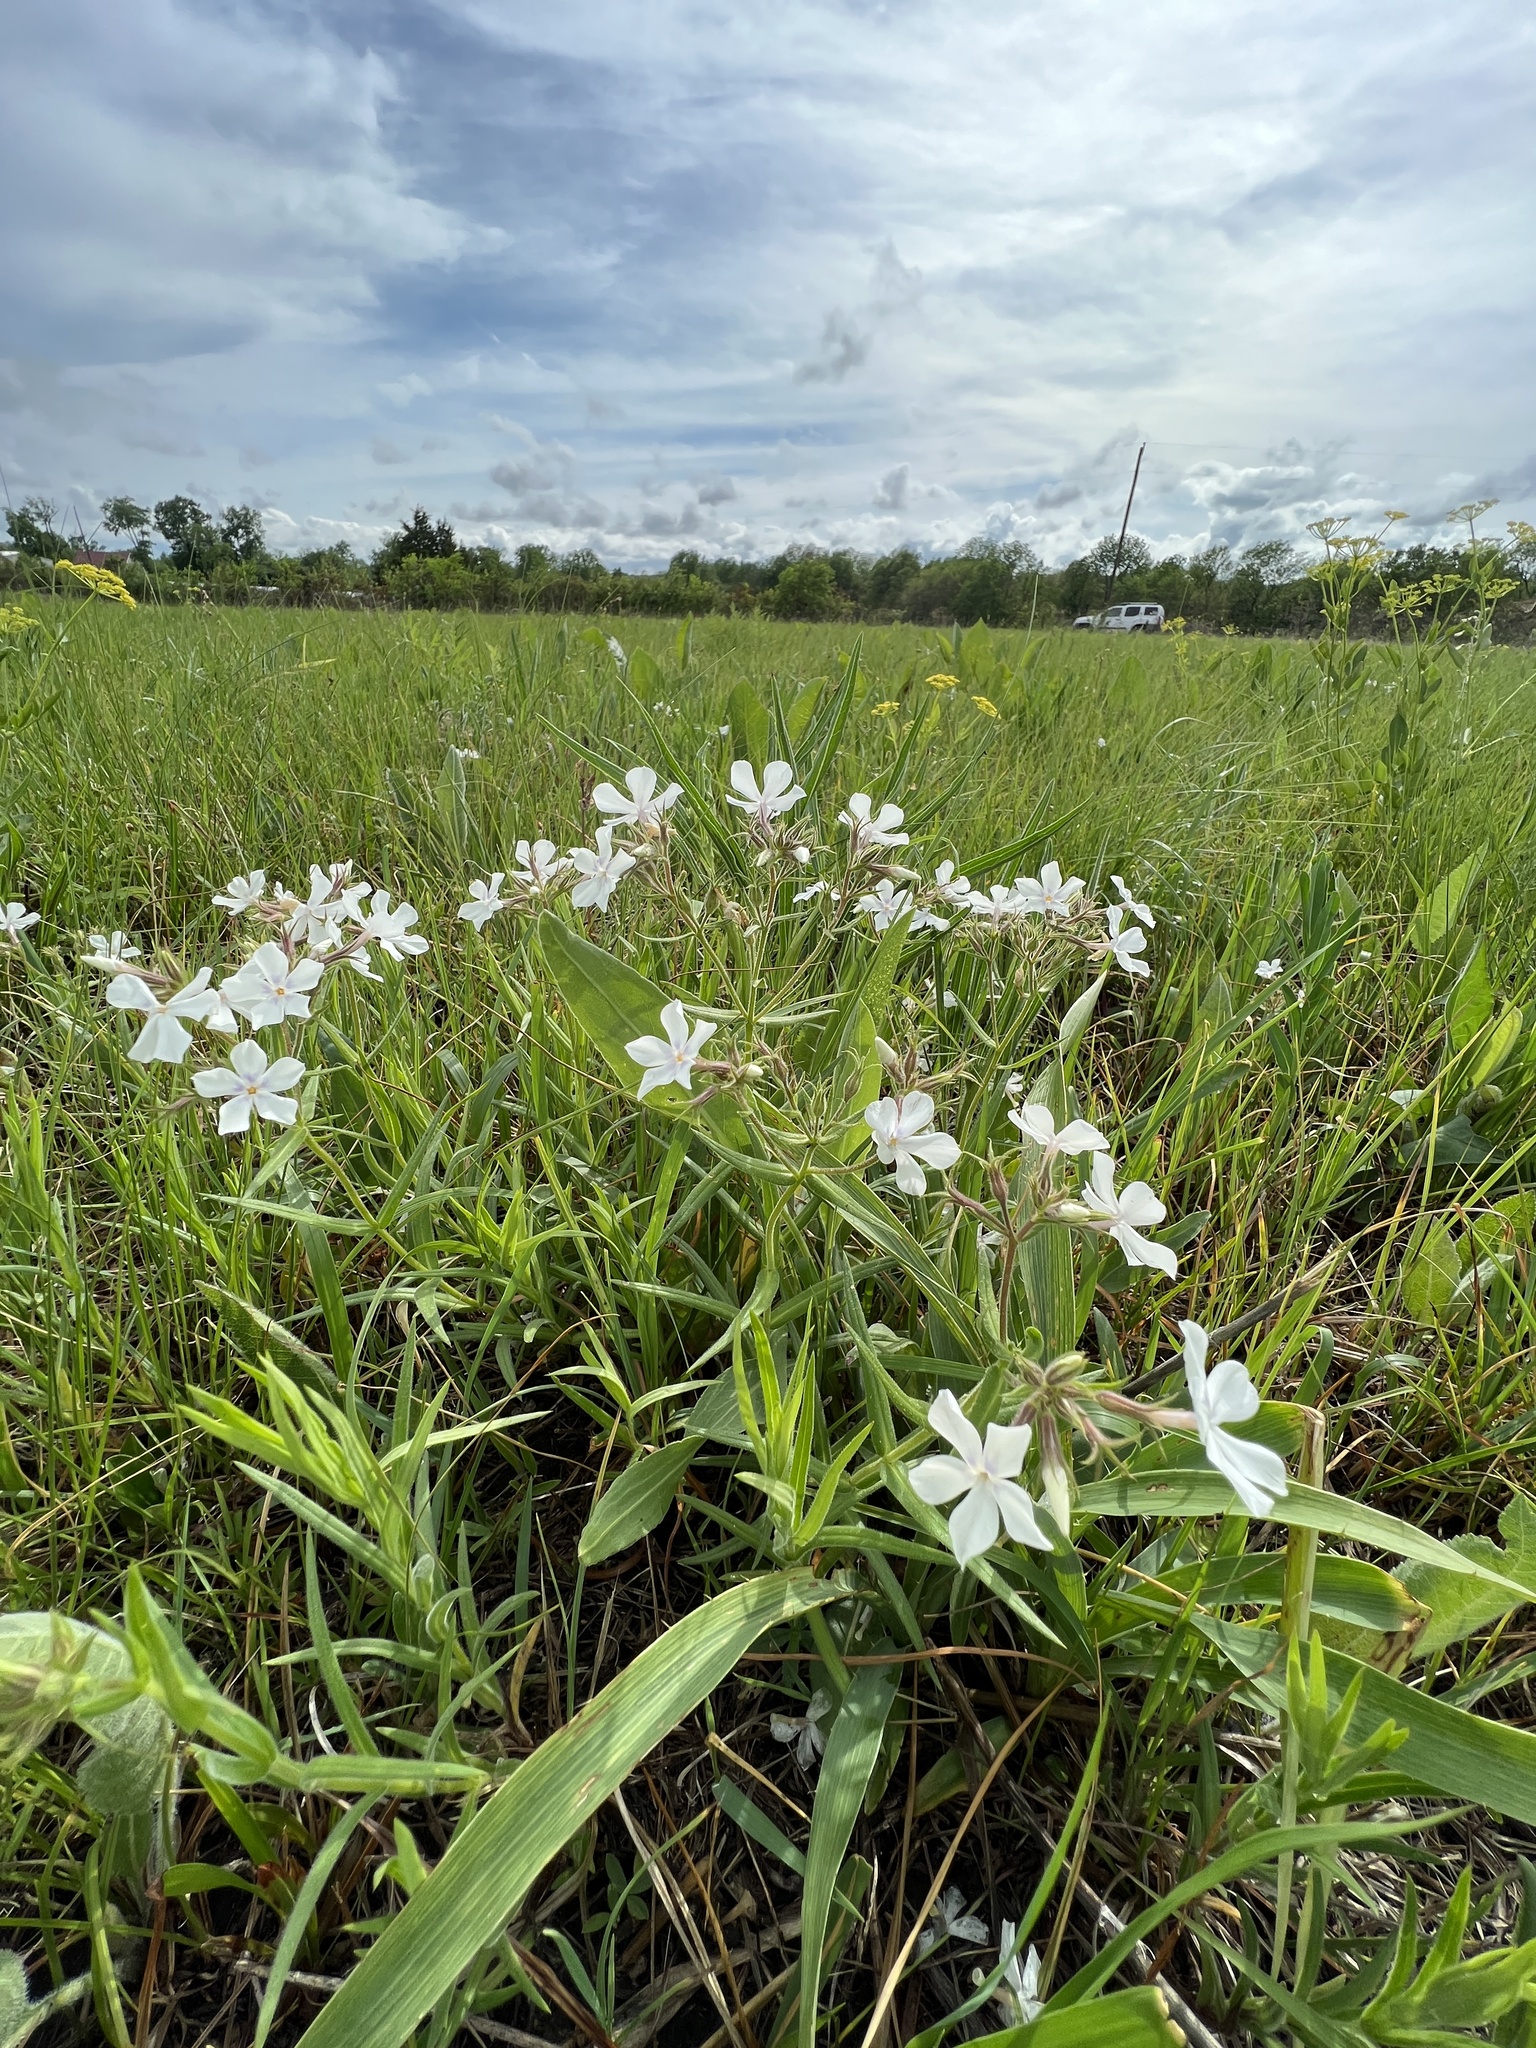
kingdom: Plantae
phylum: Tracheophyta
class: Magnoliopsida
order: Ericales
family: Polemoniaceae
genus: Phlox
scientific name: Phlox pilosa
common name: Prairie phlox
